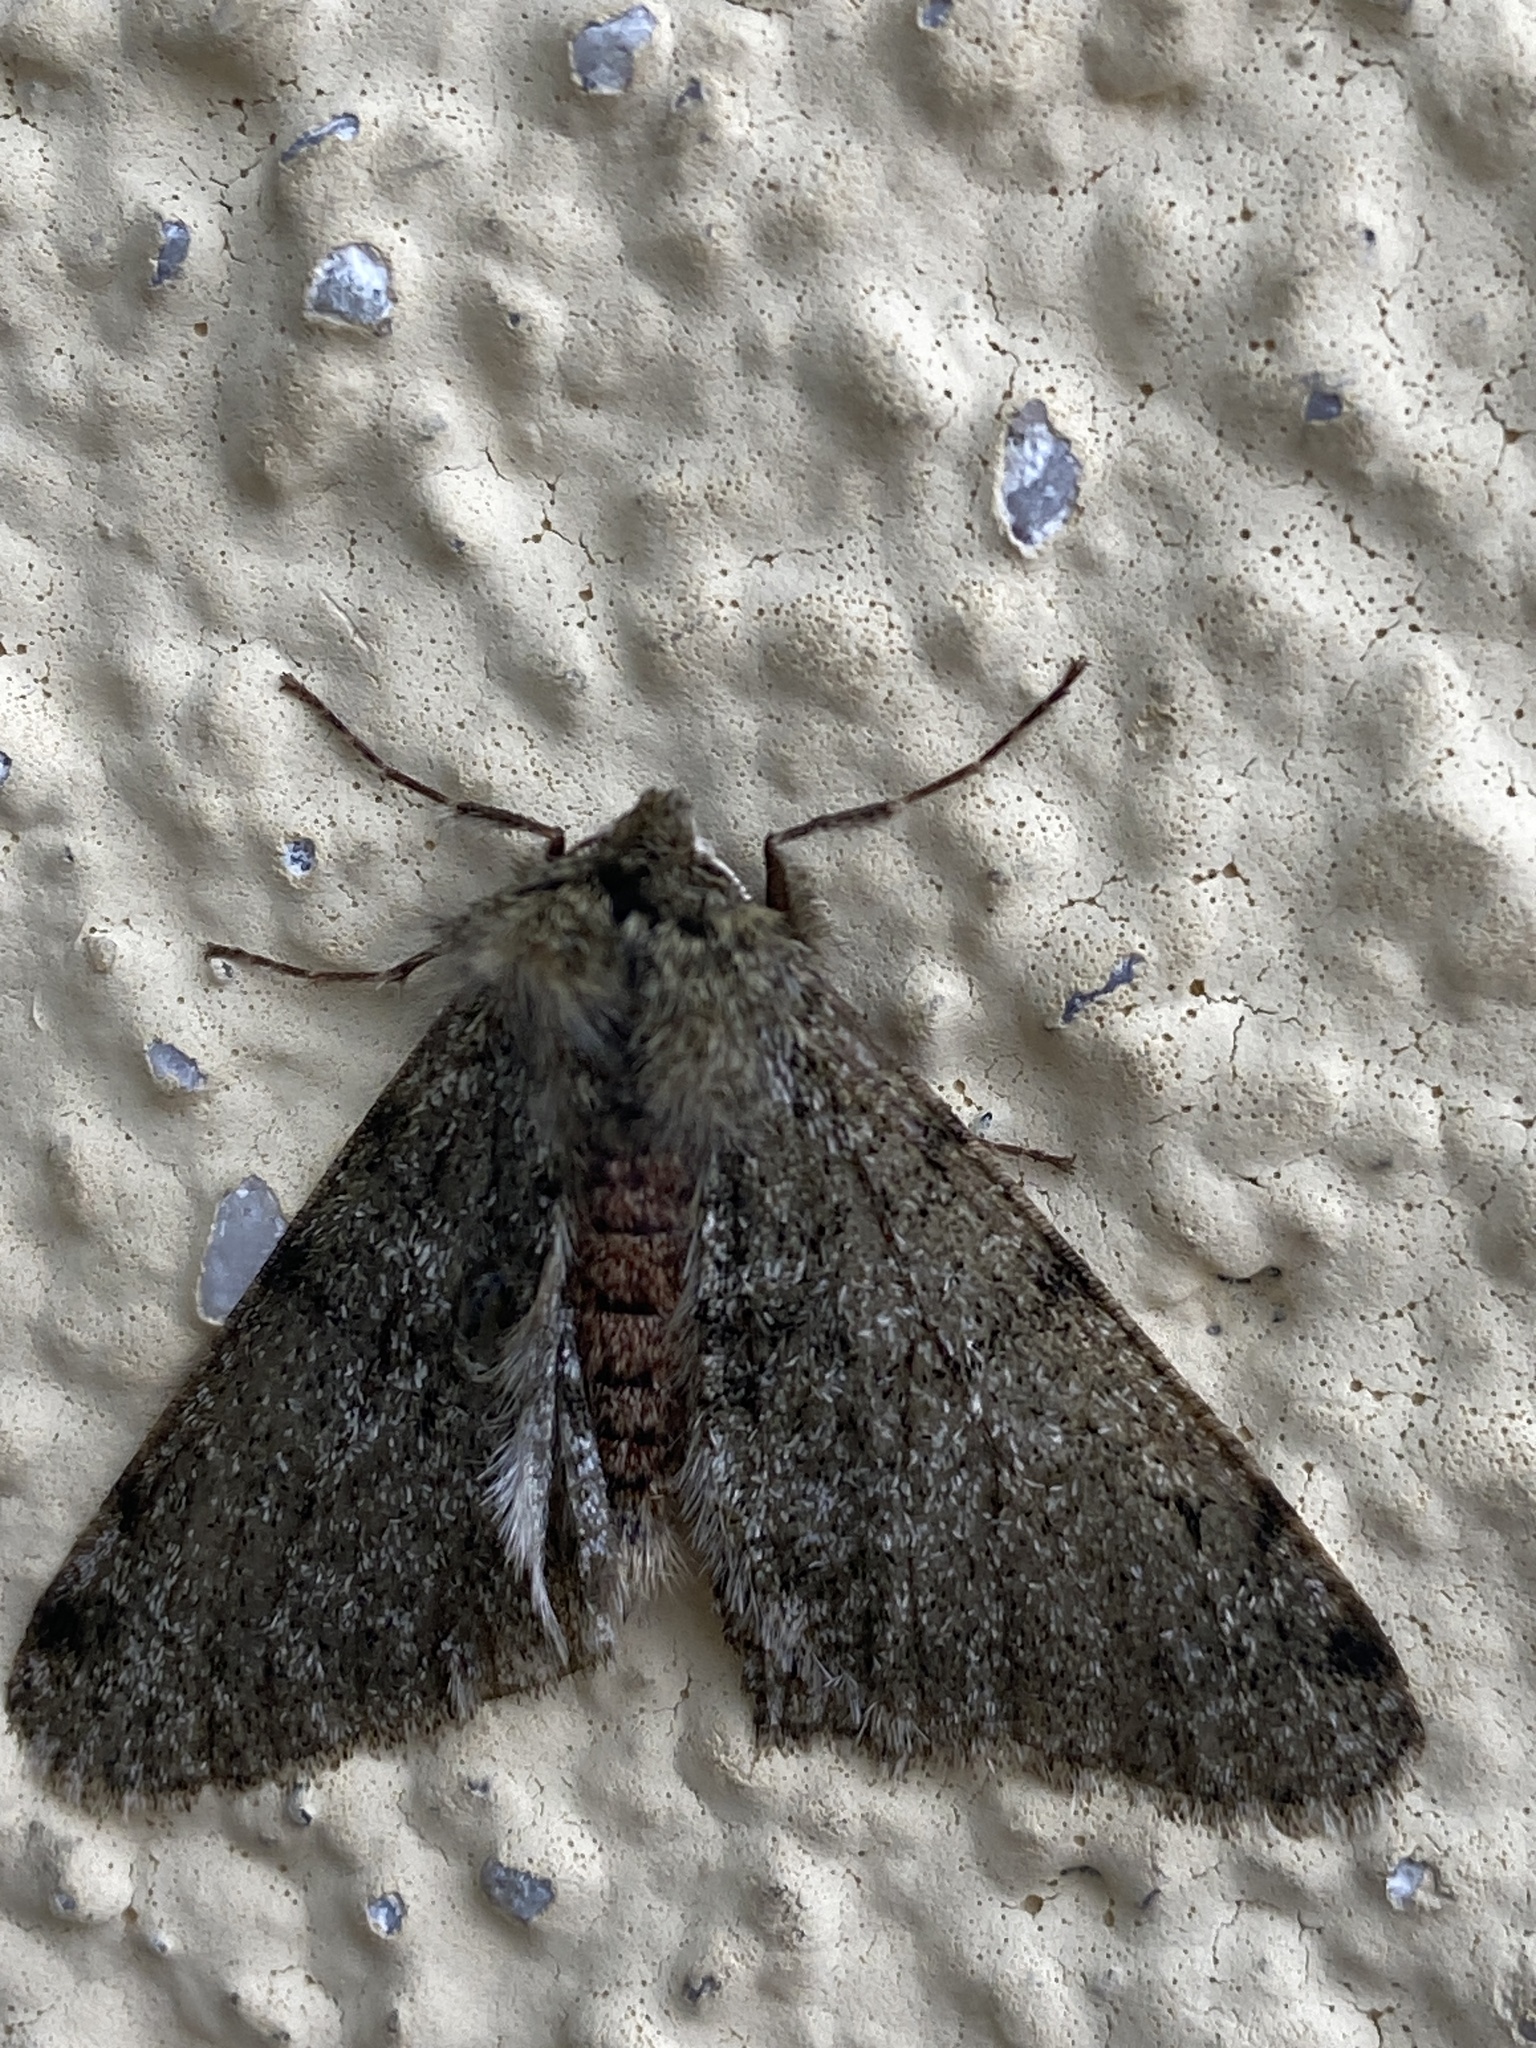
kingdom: Animalia
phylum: Arthropoda
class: Insecta
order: Lepidoptera
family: Geometridae
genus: Phigalia
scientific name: Phigalia pilosaria
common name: Pale brindled beauty
